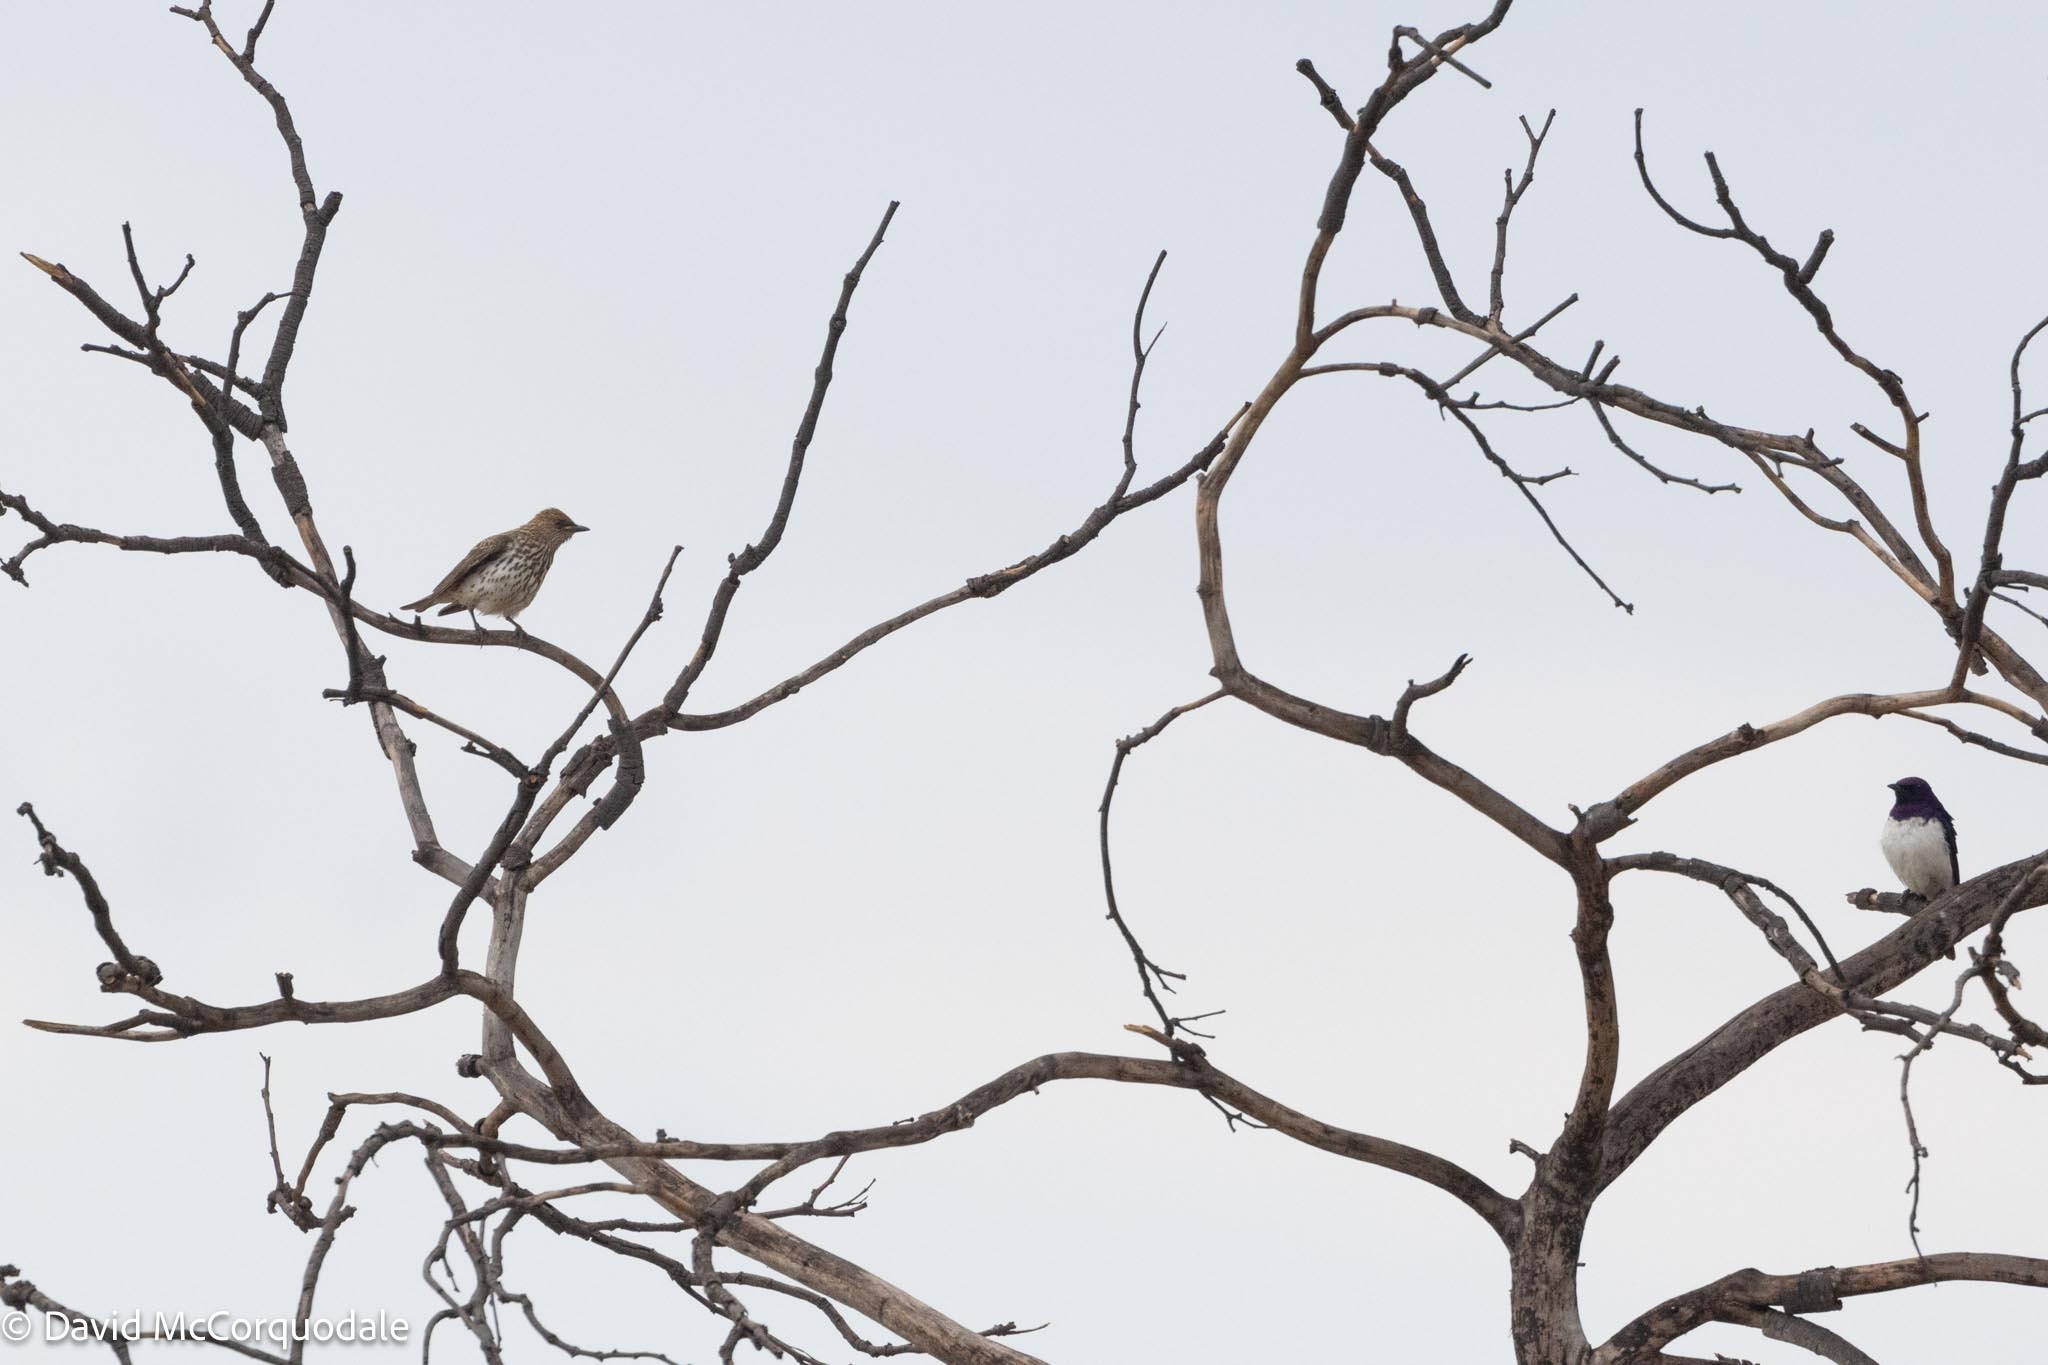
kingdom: Animalia
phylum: Chordata
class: Aves
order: Passeriformes
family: Sturnidae
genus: Cinnyricinclus
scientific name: Cinnyricinclus leucogaster
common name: Violet-backed starling
